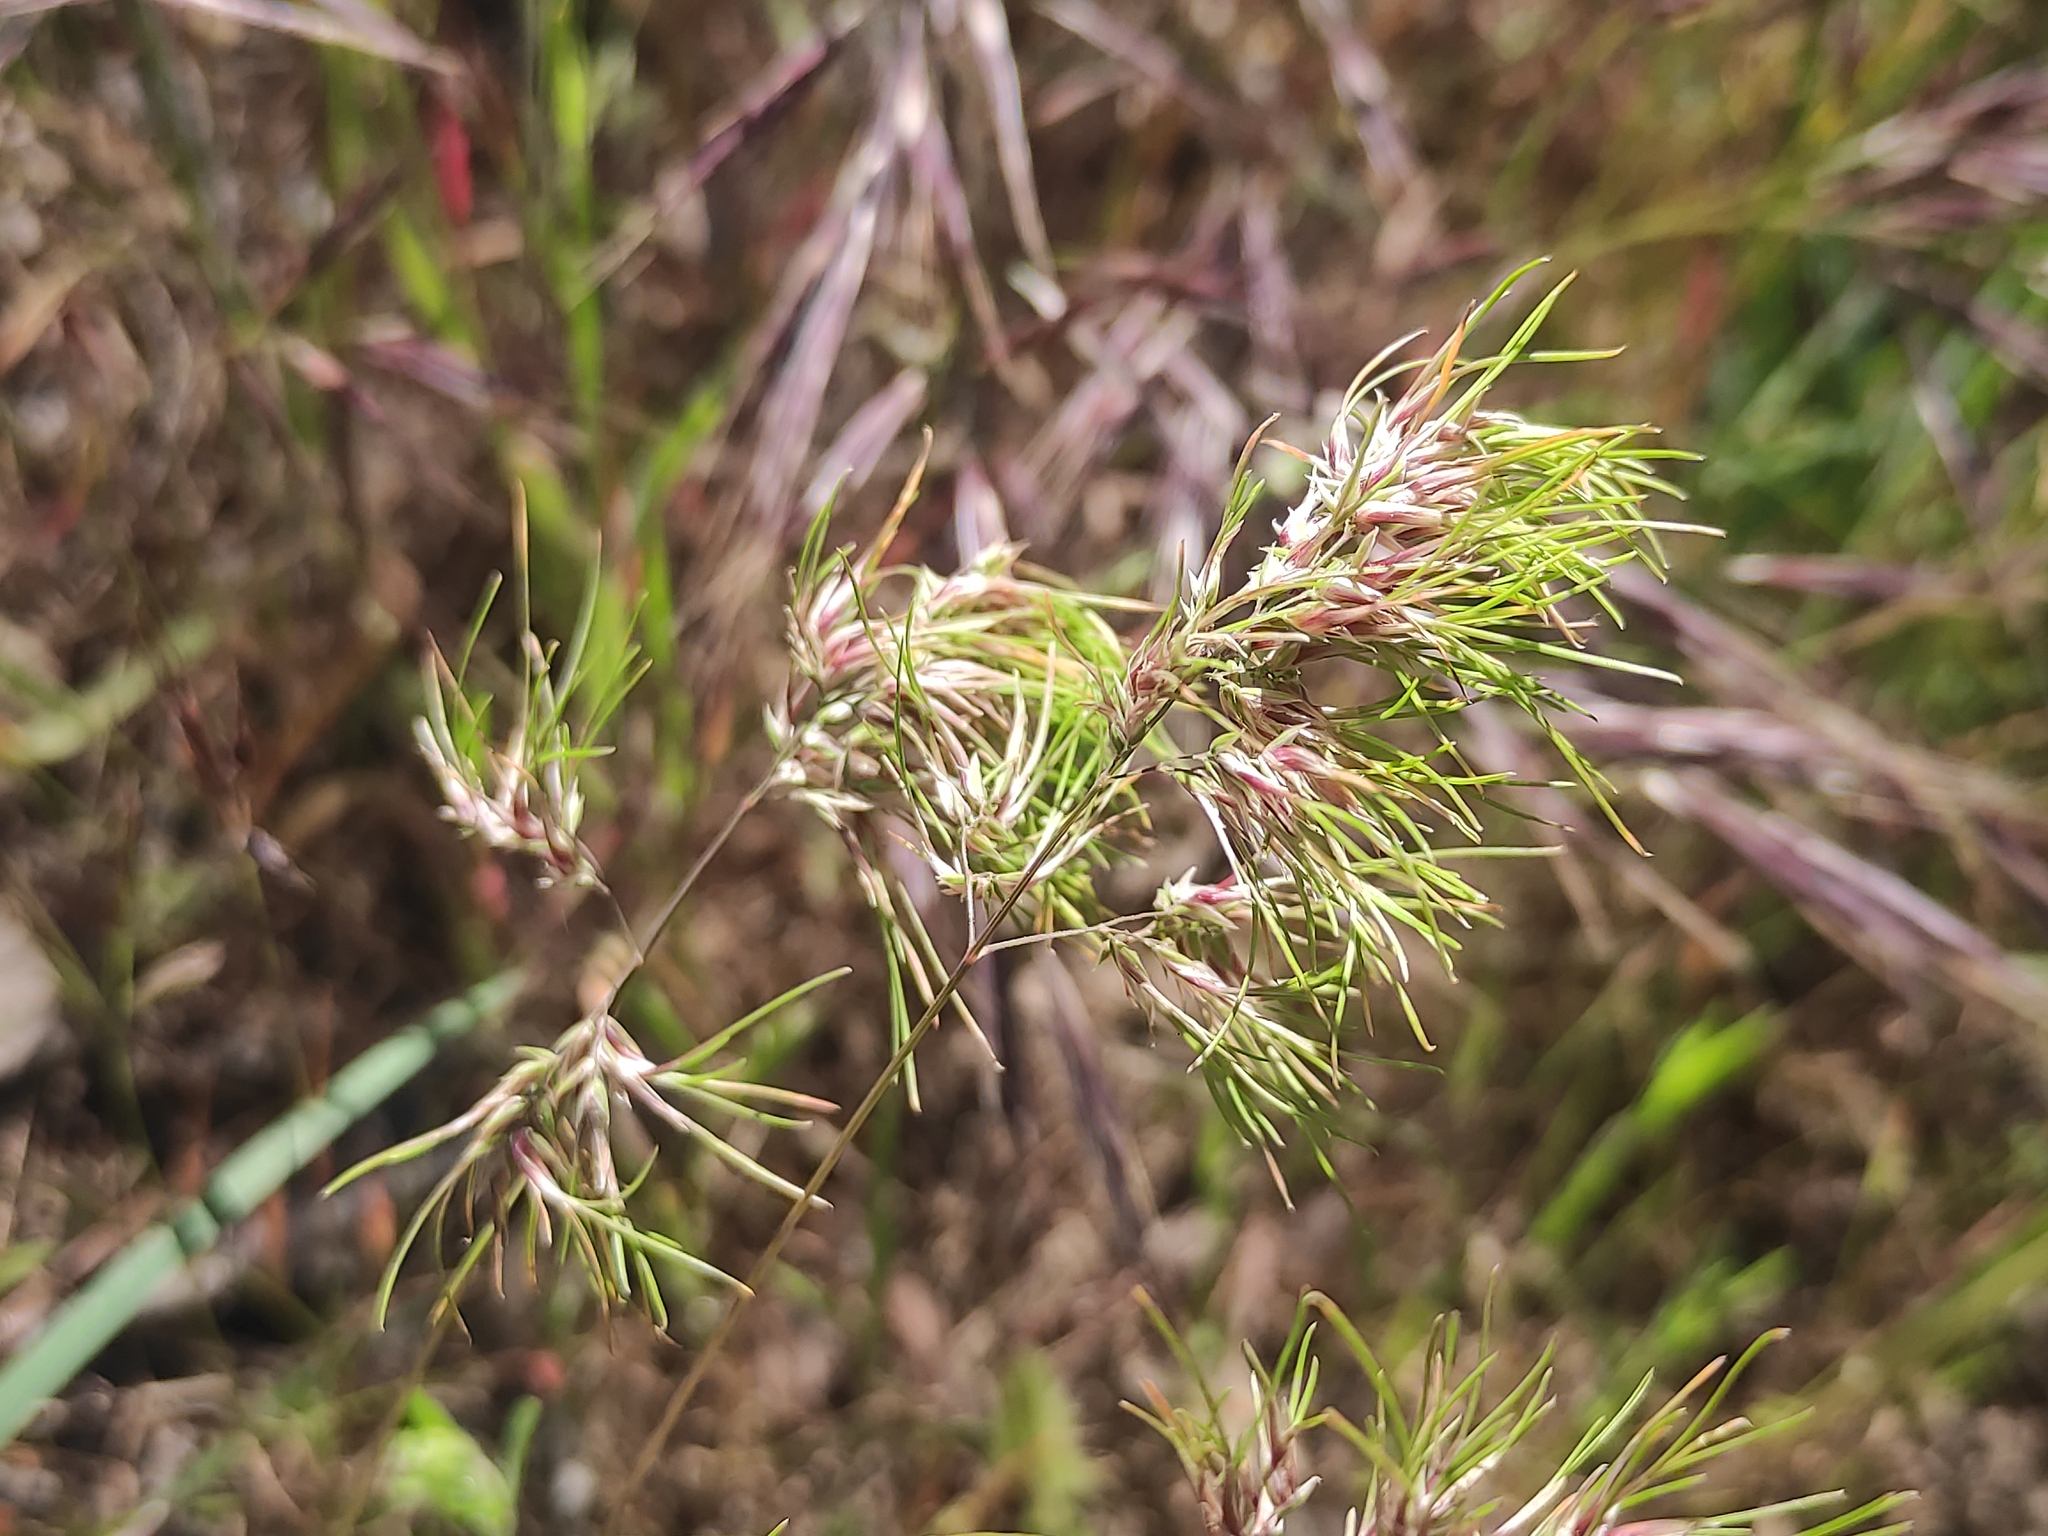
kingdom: Plantae
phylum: Tracheophyta
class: Liliopsida
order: Poales
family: Poaceae
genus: Poa
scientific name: Poa bulbosa
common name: Bulbous bluegrass
